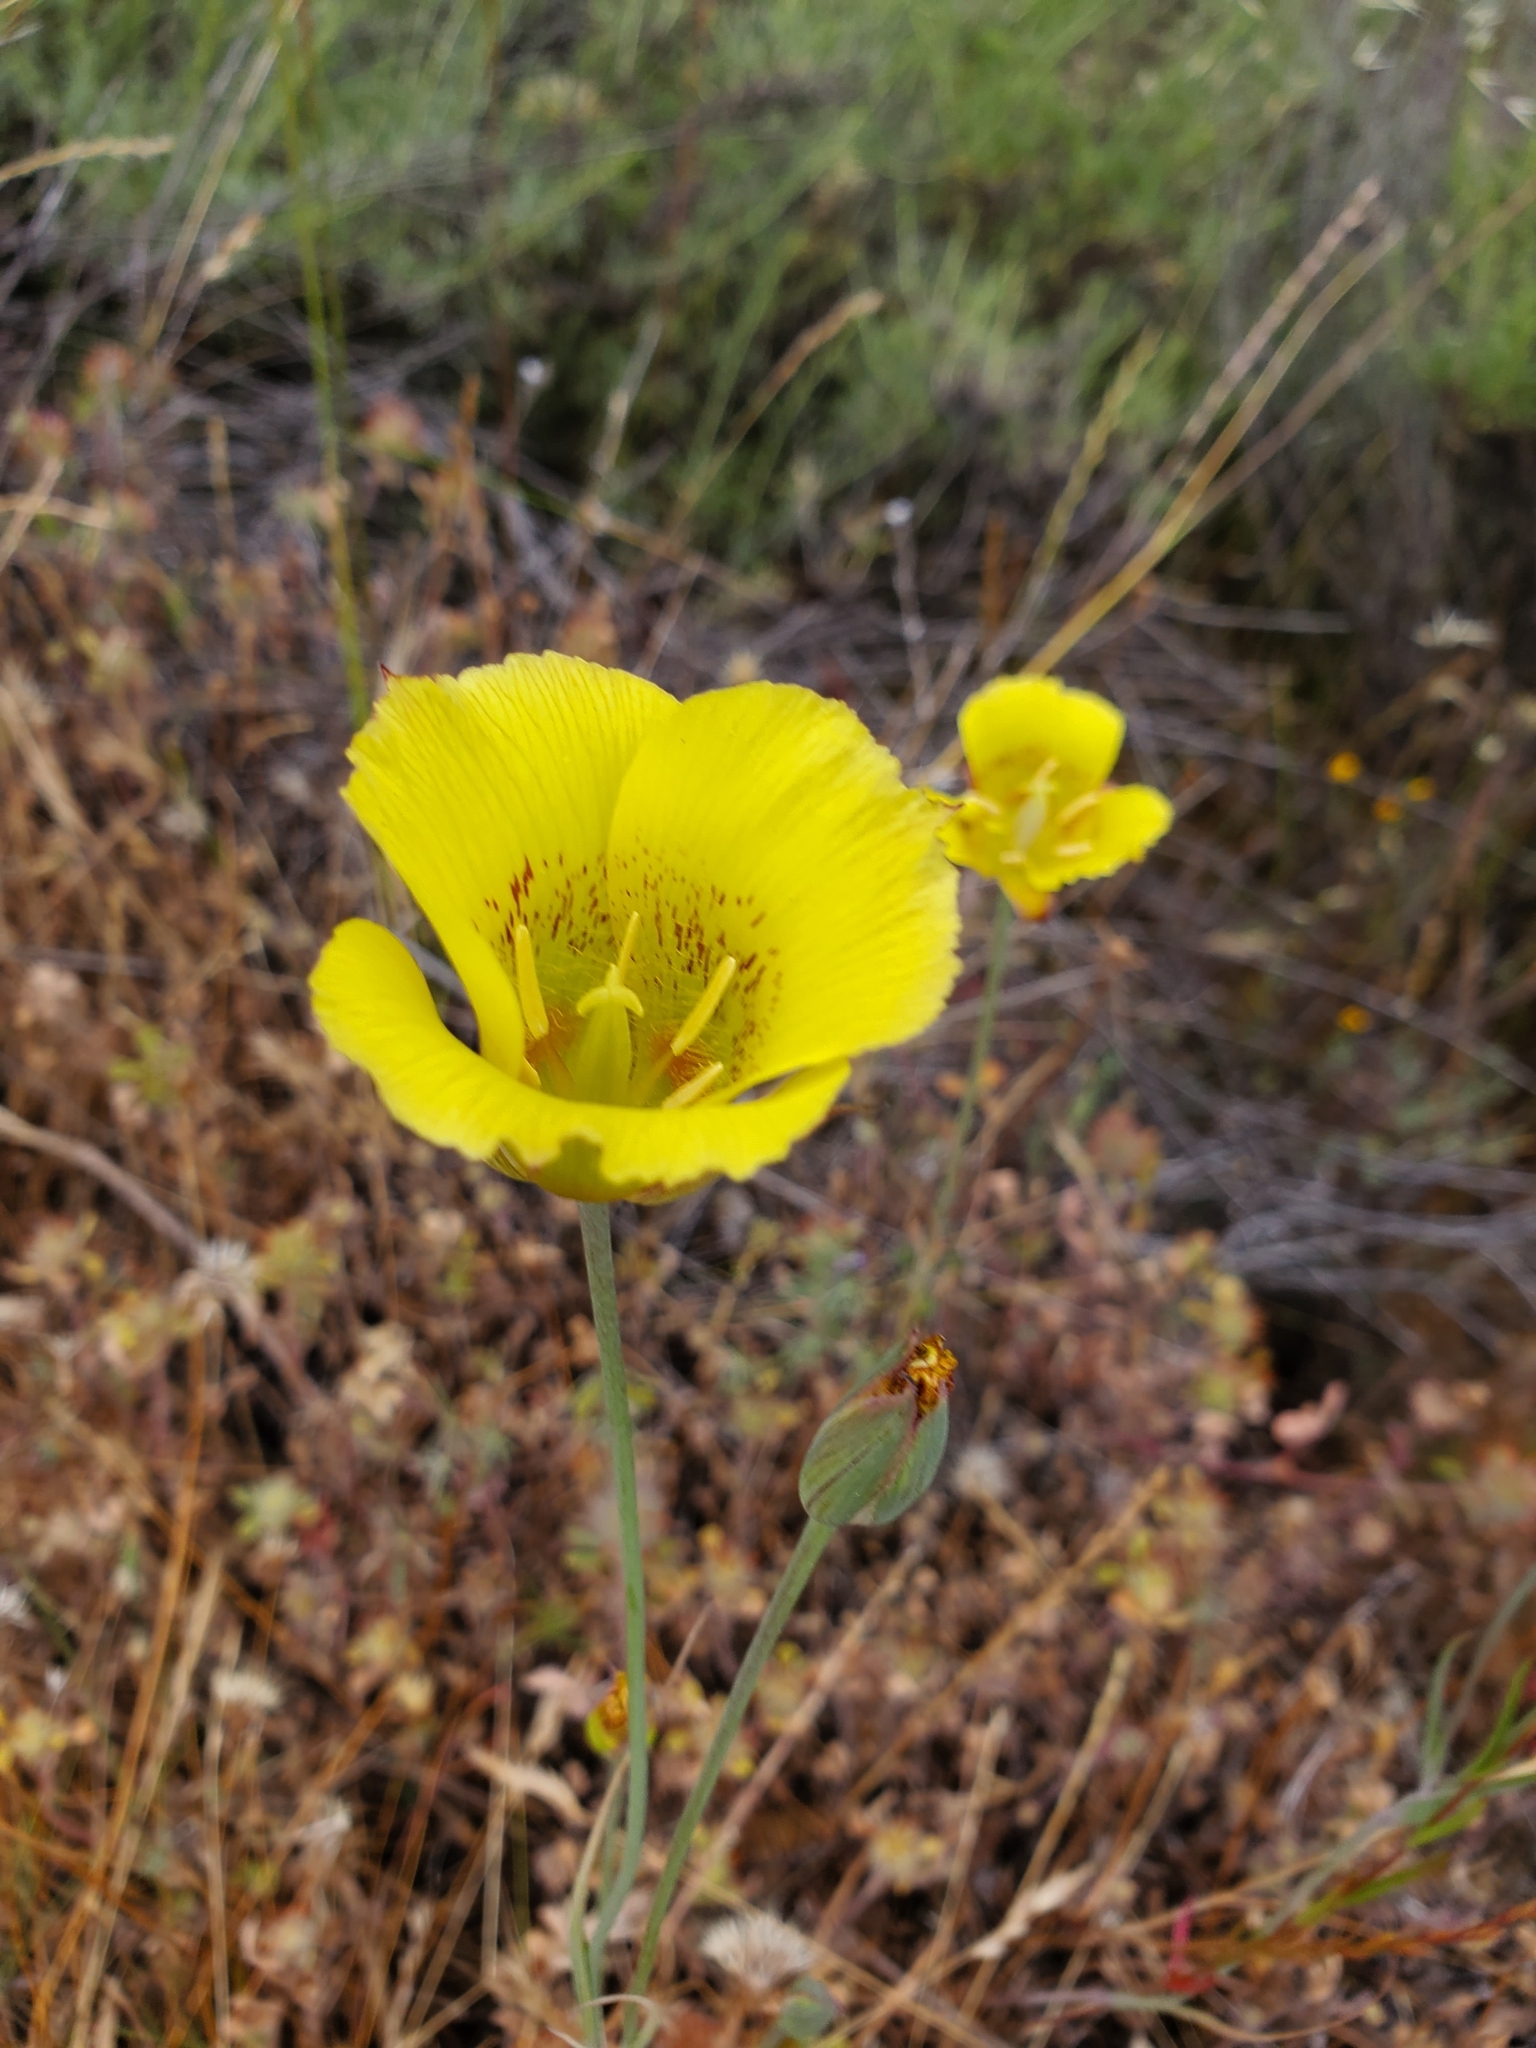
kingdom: Plantae
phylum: Tracheophyta
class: Liliopsida
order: Liliales
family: Liliaceae
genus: Calochortus
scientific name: Calochortus luteus
